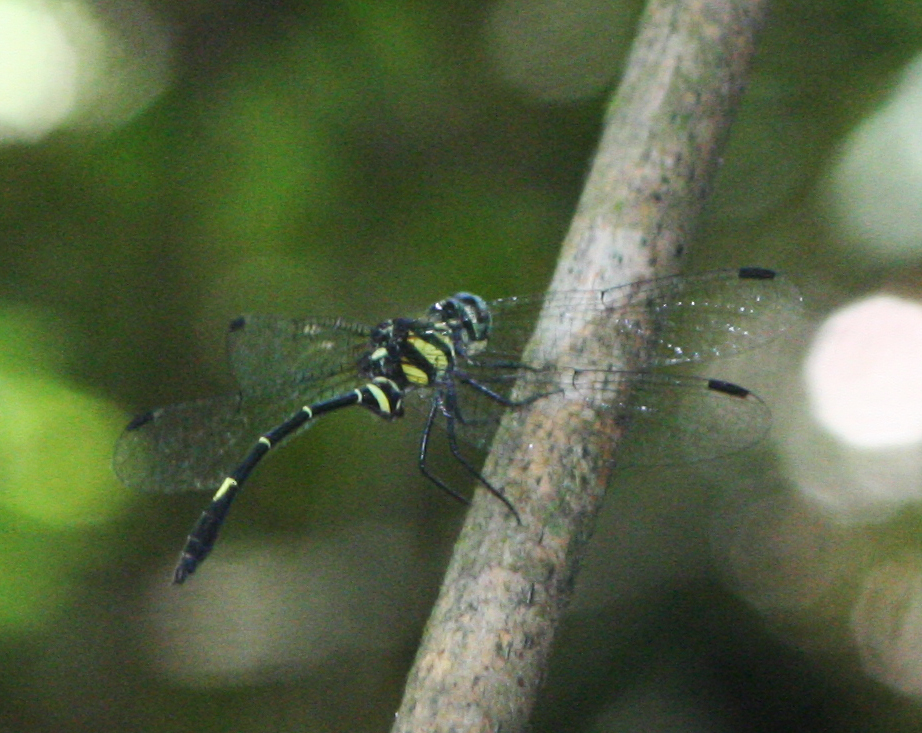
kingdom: Animalia
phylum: Arthropoda
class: Insecta
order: Odonata
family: Libellulidae
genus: Risiophlebia
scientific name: Risiophlebia guentheri
